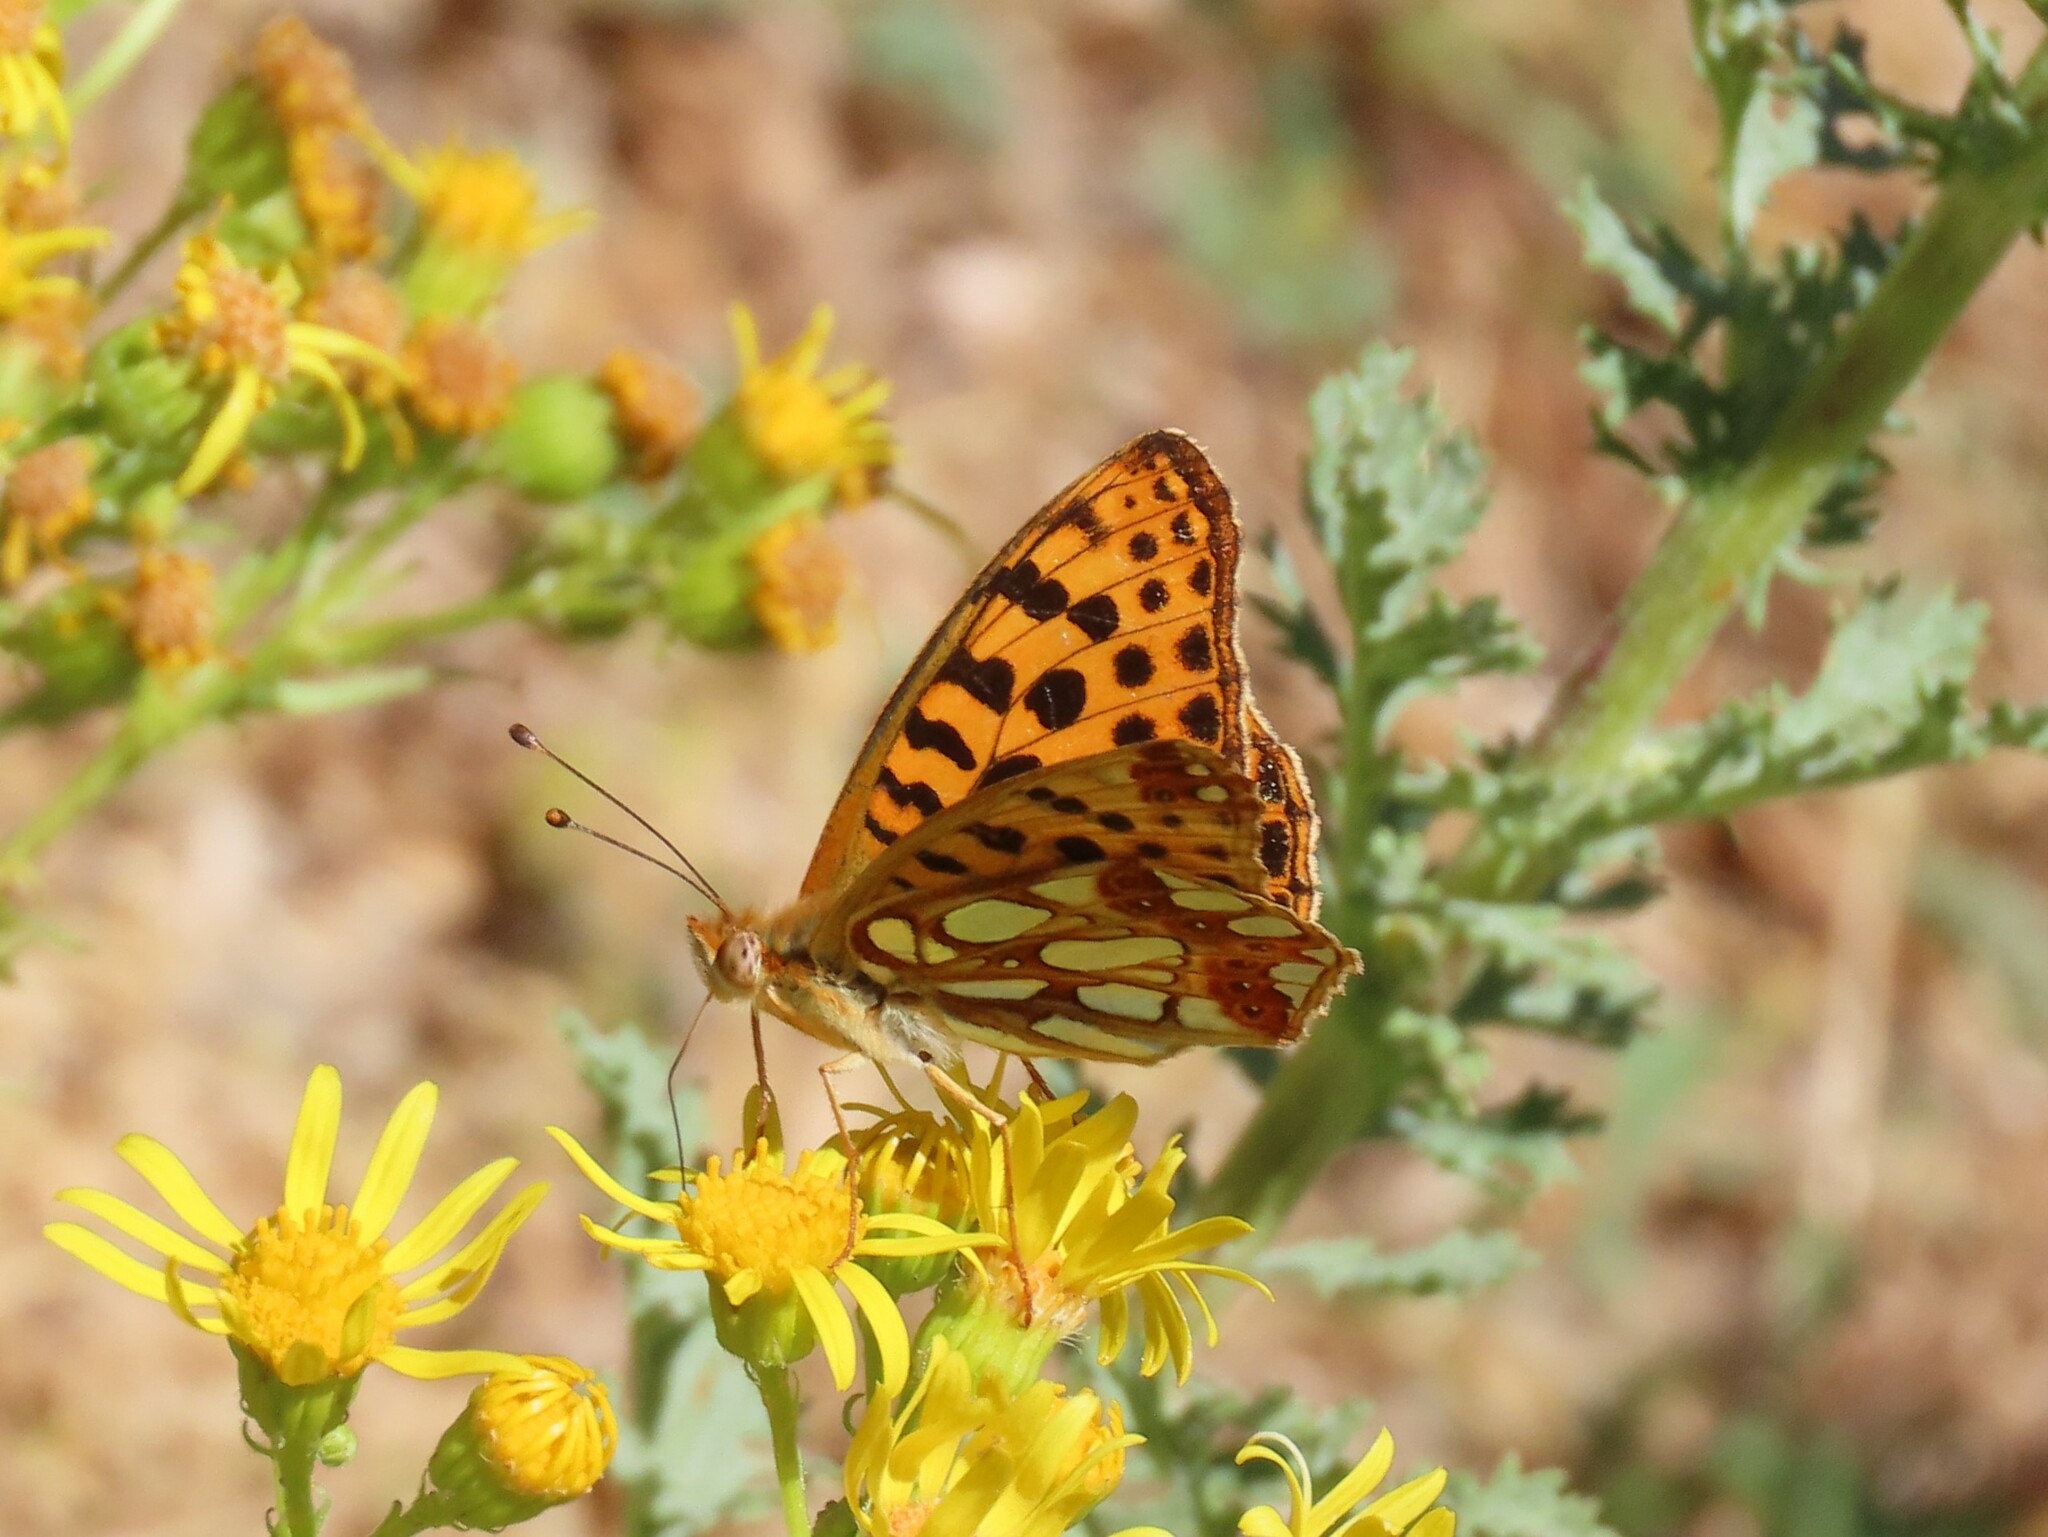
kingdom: Animalia
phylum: Arthropoda
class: Insecta
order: Lepidoptera
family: Nymphalidae
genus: Issoria
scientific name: Issoria lathonia
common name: Queen of spain fritillary
